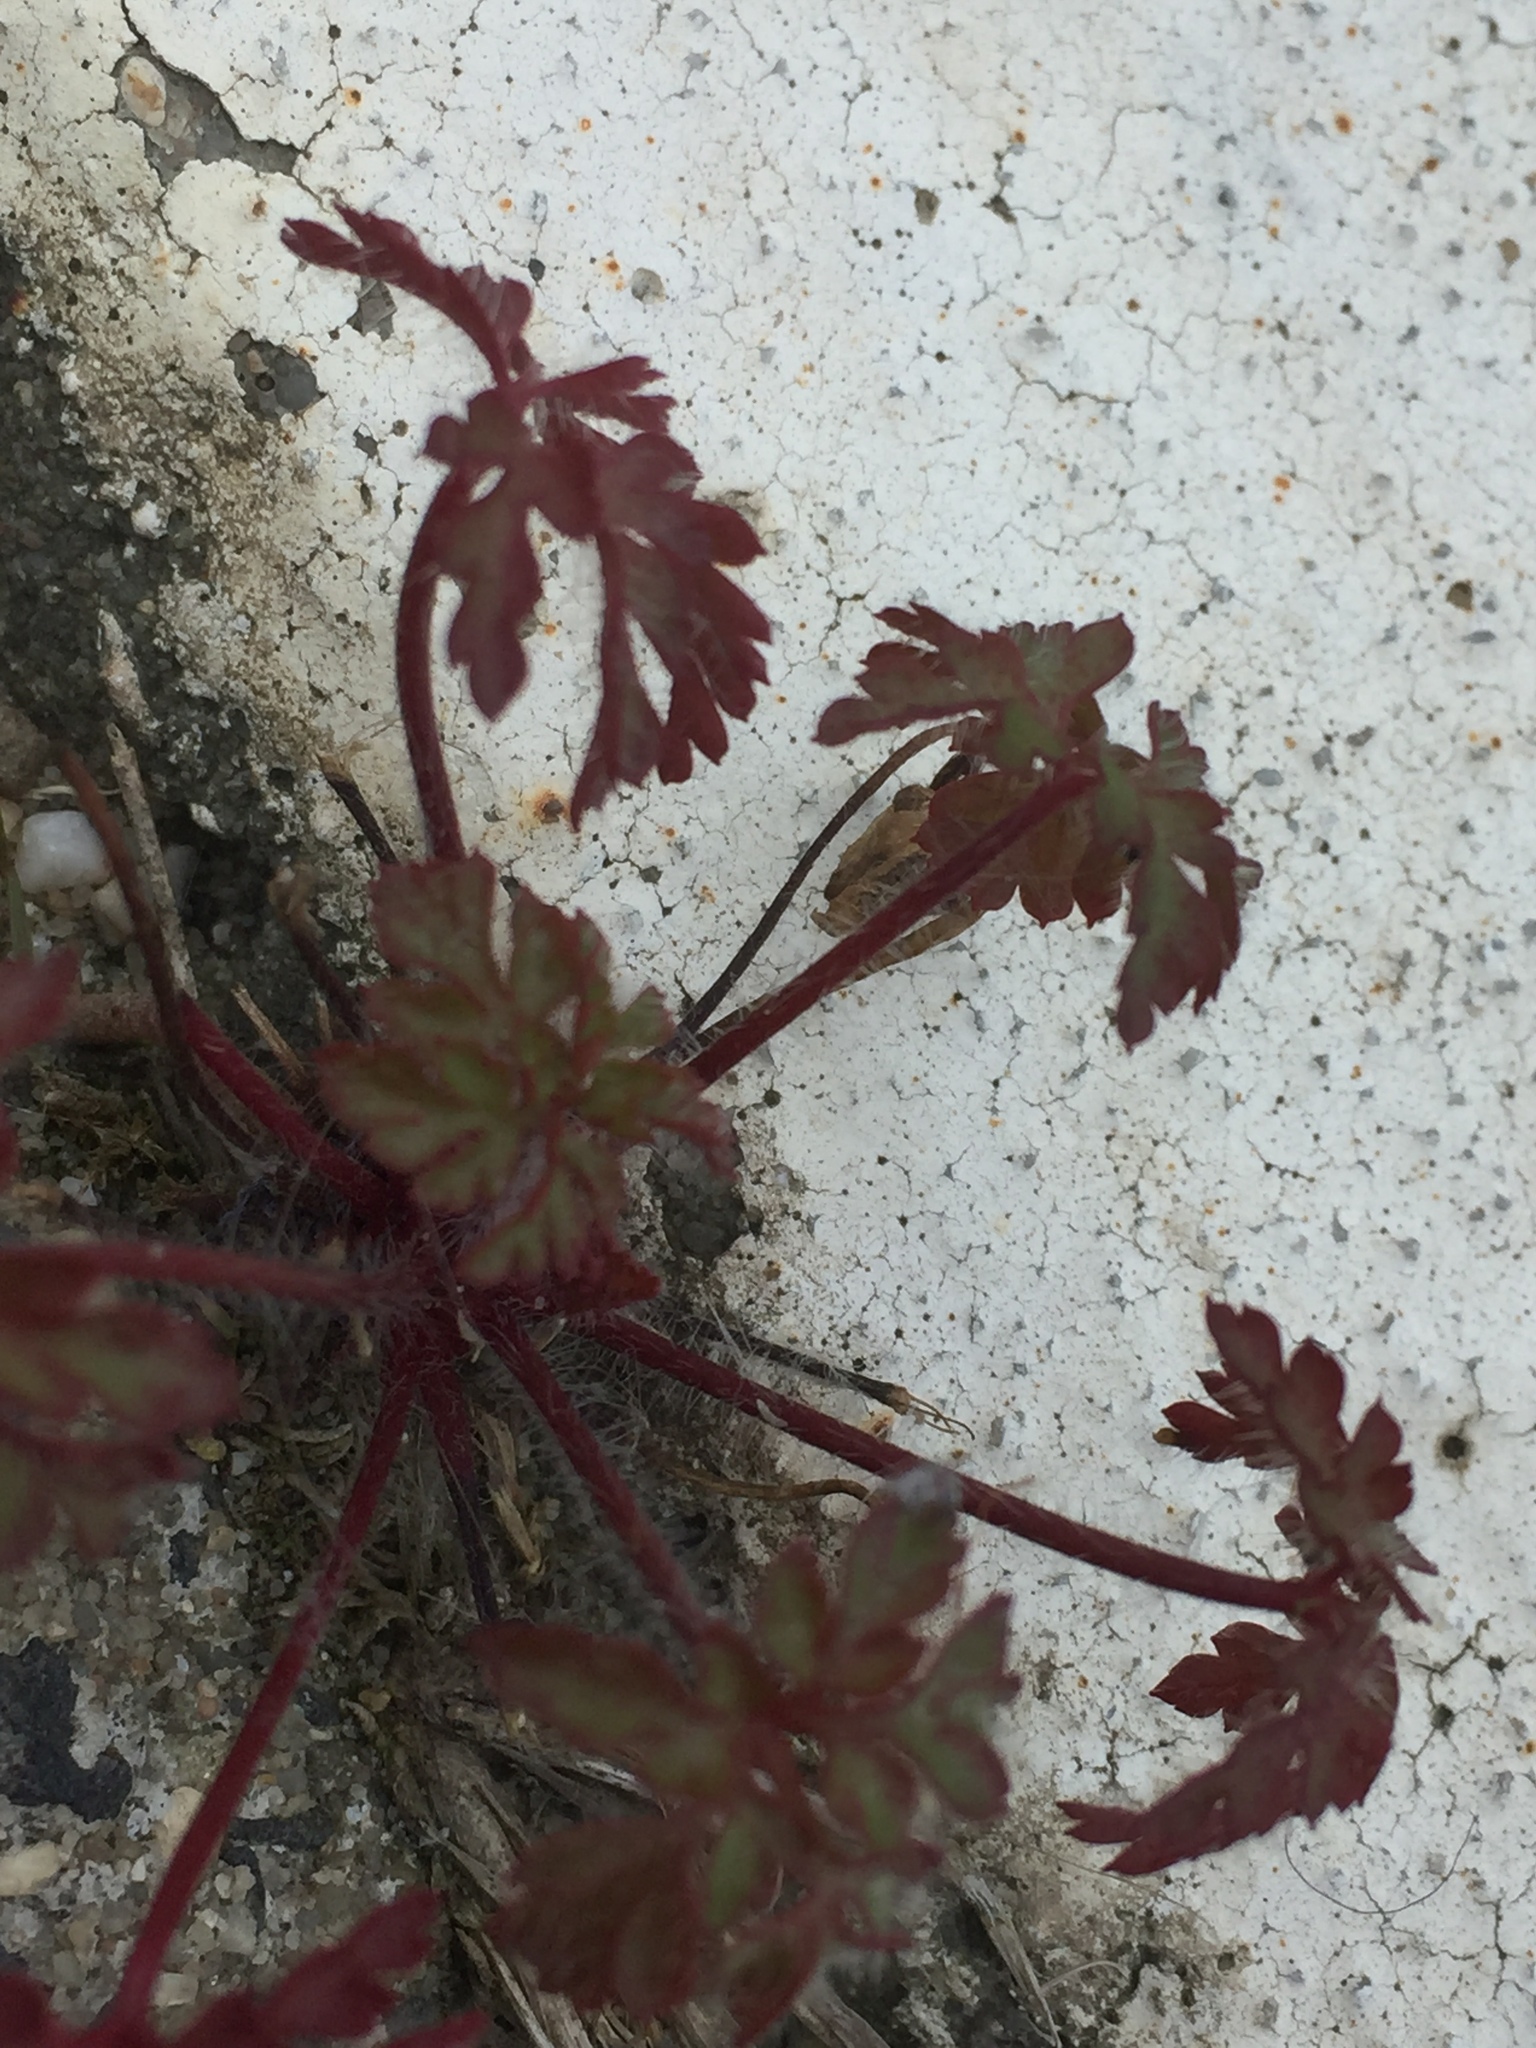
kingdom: Plantae
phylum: Tracheophyta
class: Magnoliopsida
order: Geraniales
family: Geraniaceae
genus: Geranium
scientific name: Geranium robertianum
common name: Herb-robert
